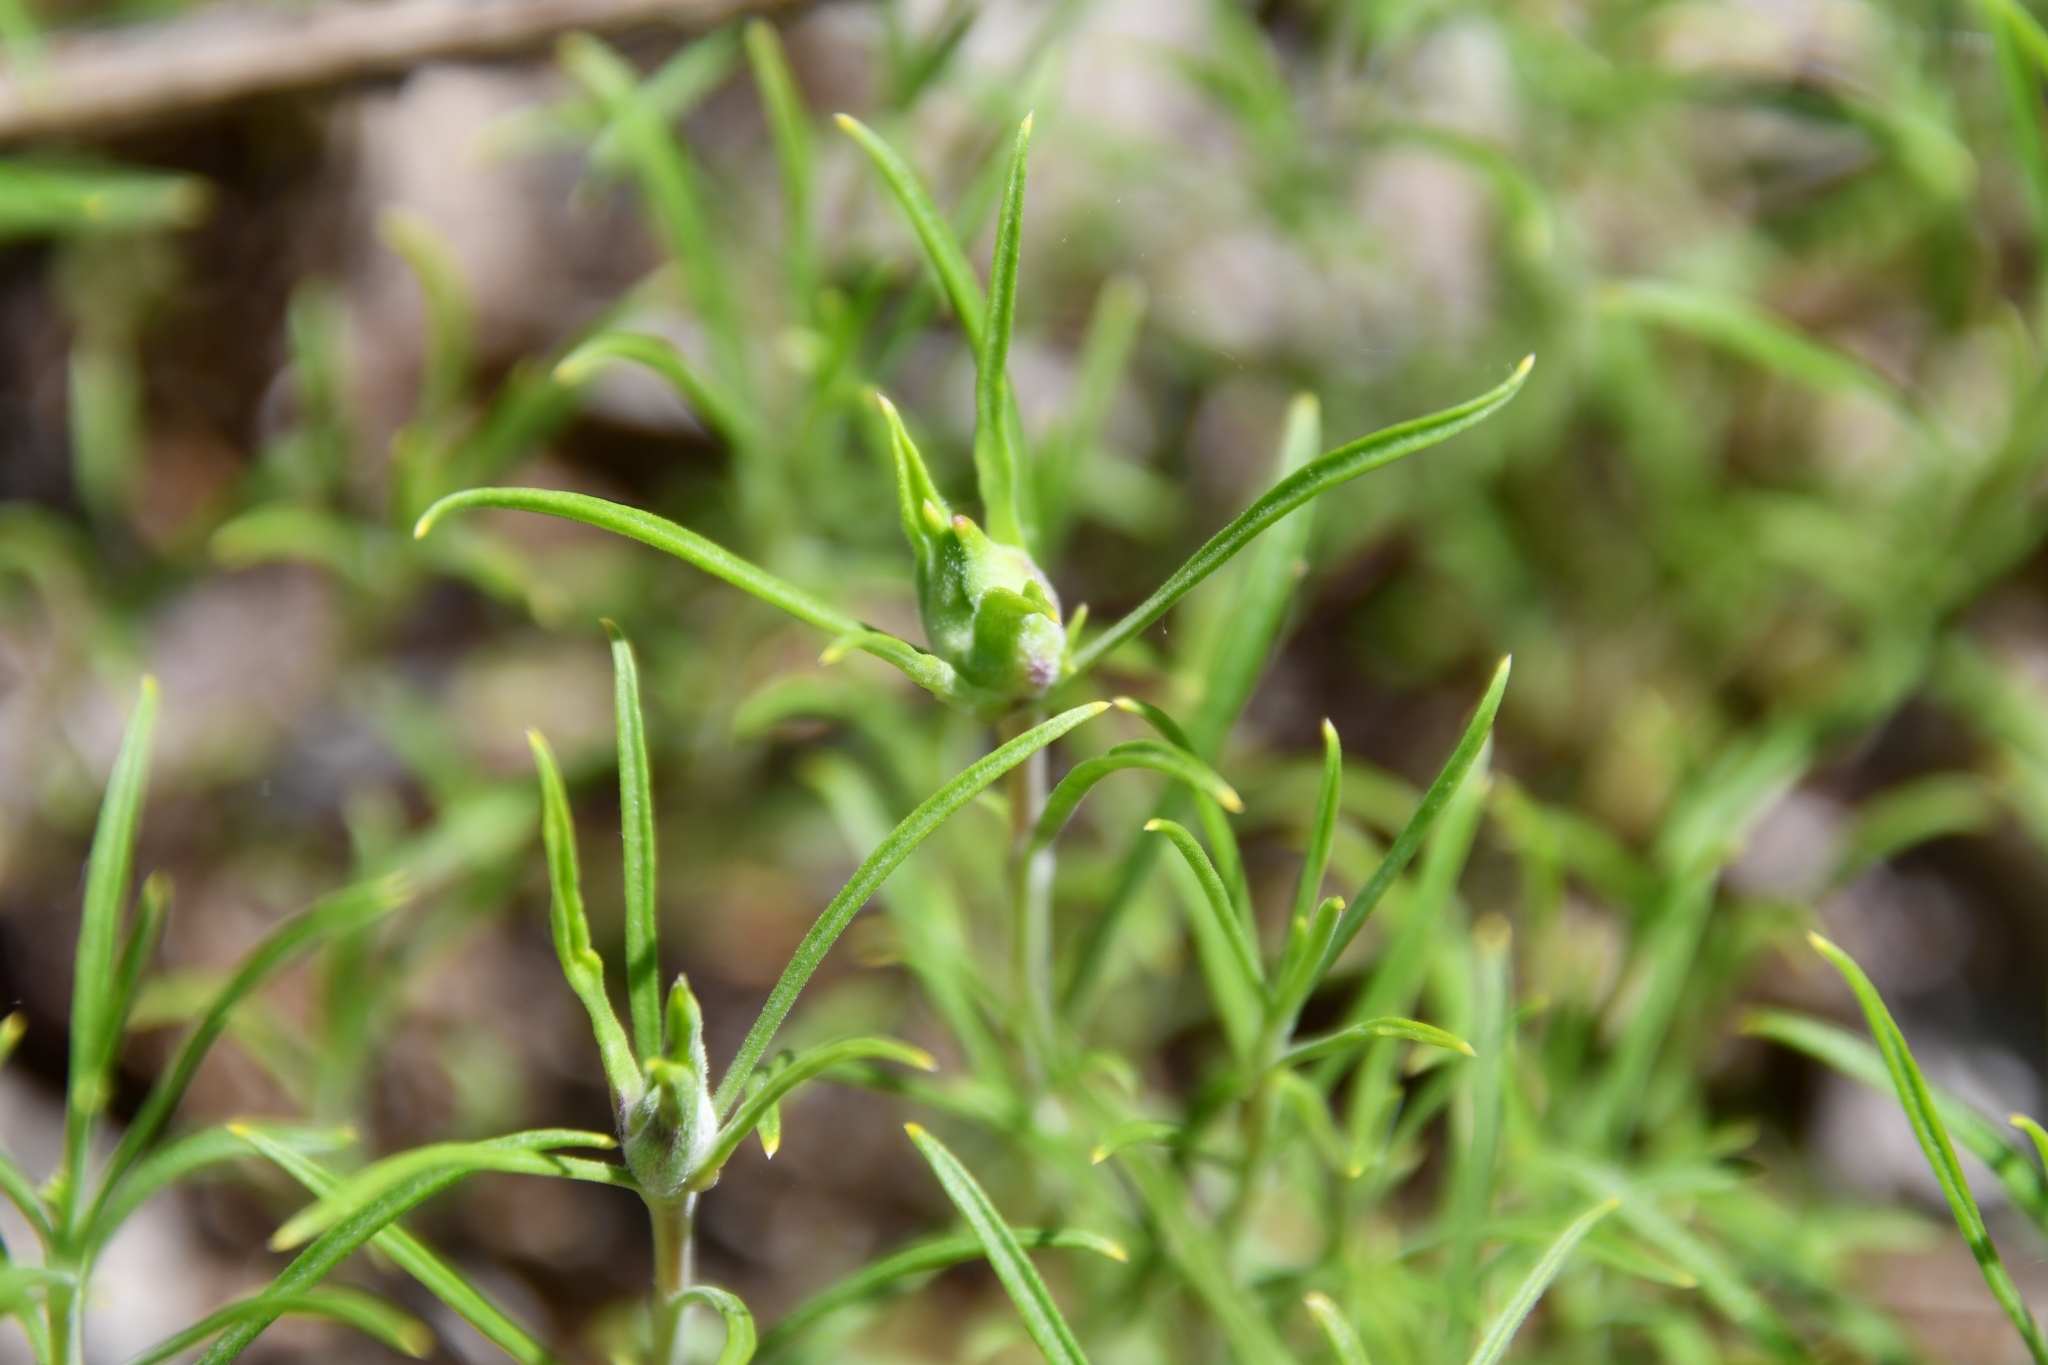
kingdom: Plantae
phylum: Tracheophyta
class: Magnoliopsida
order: Caryophyllales
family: Caryophyllaceae
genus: Silene
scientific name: Silene supina
